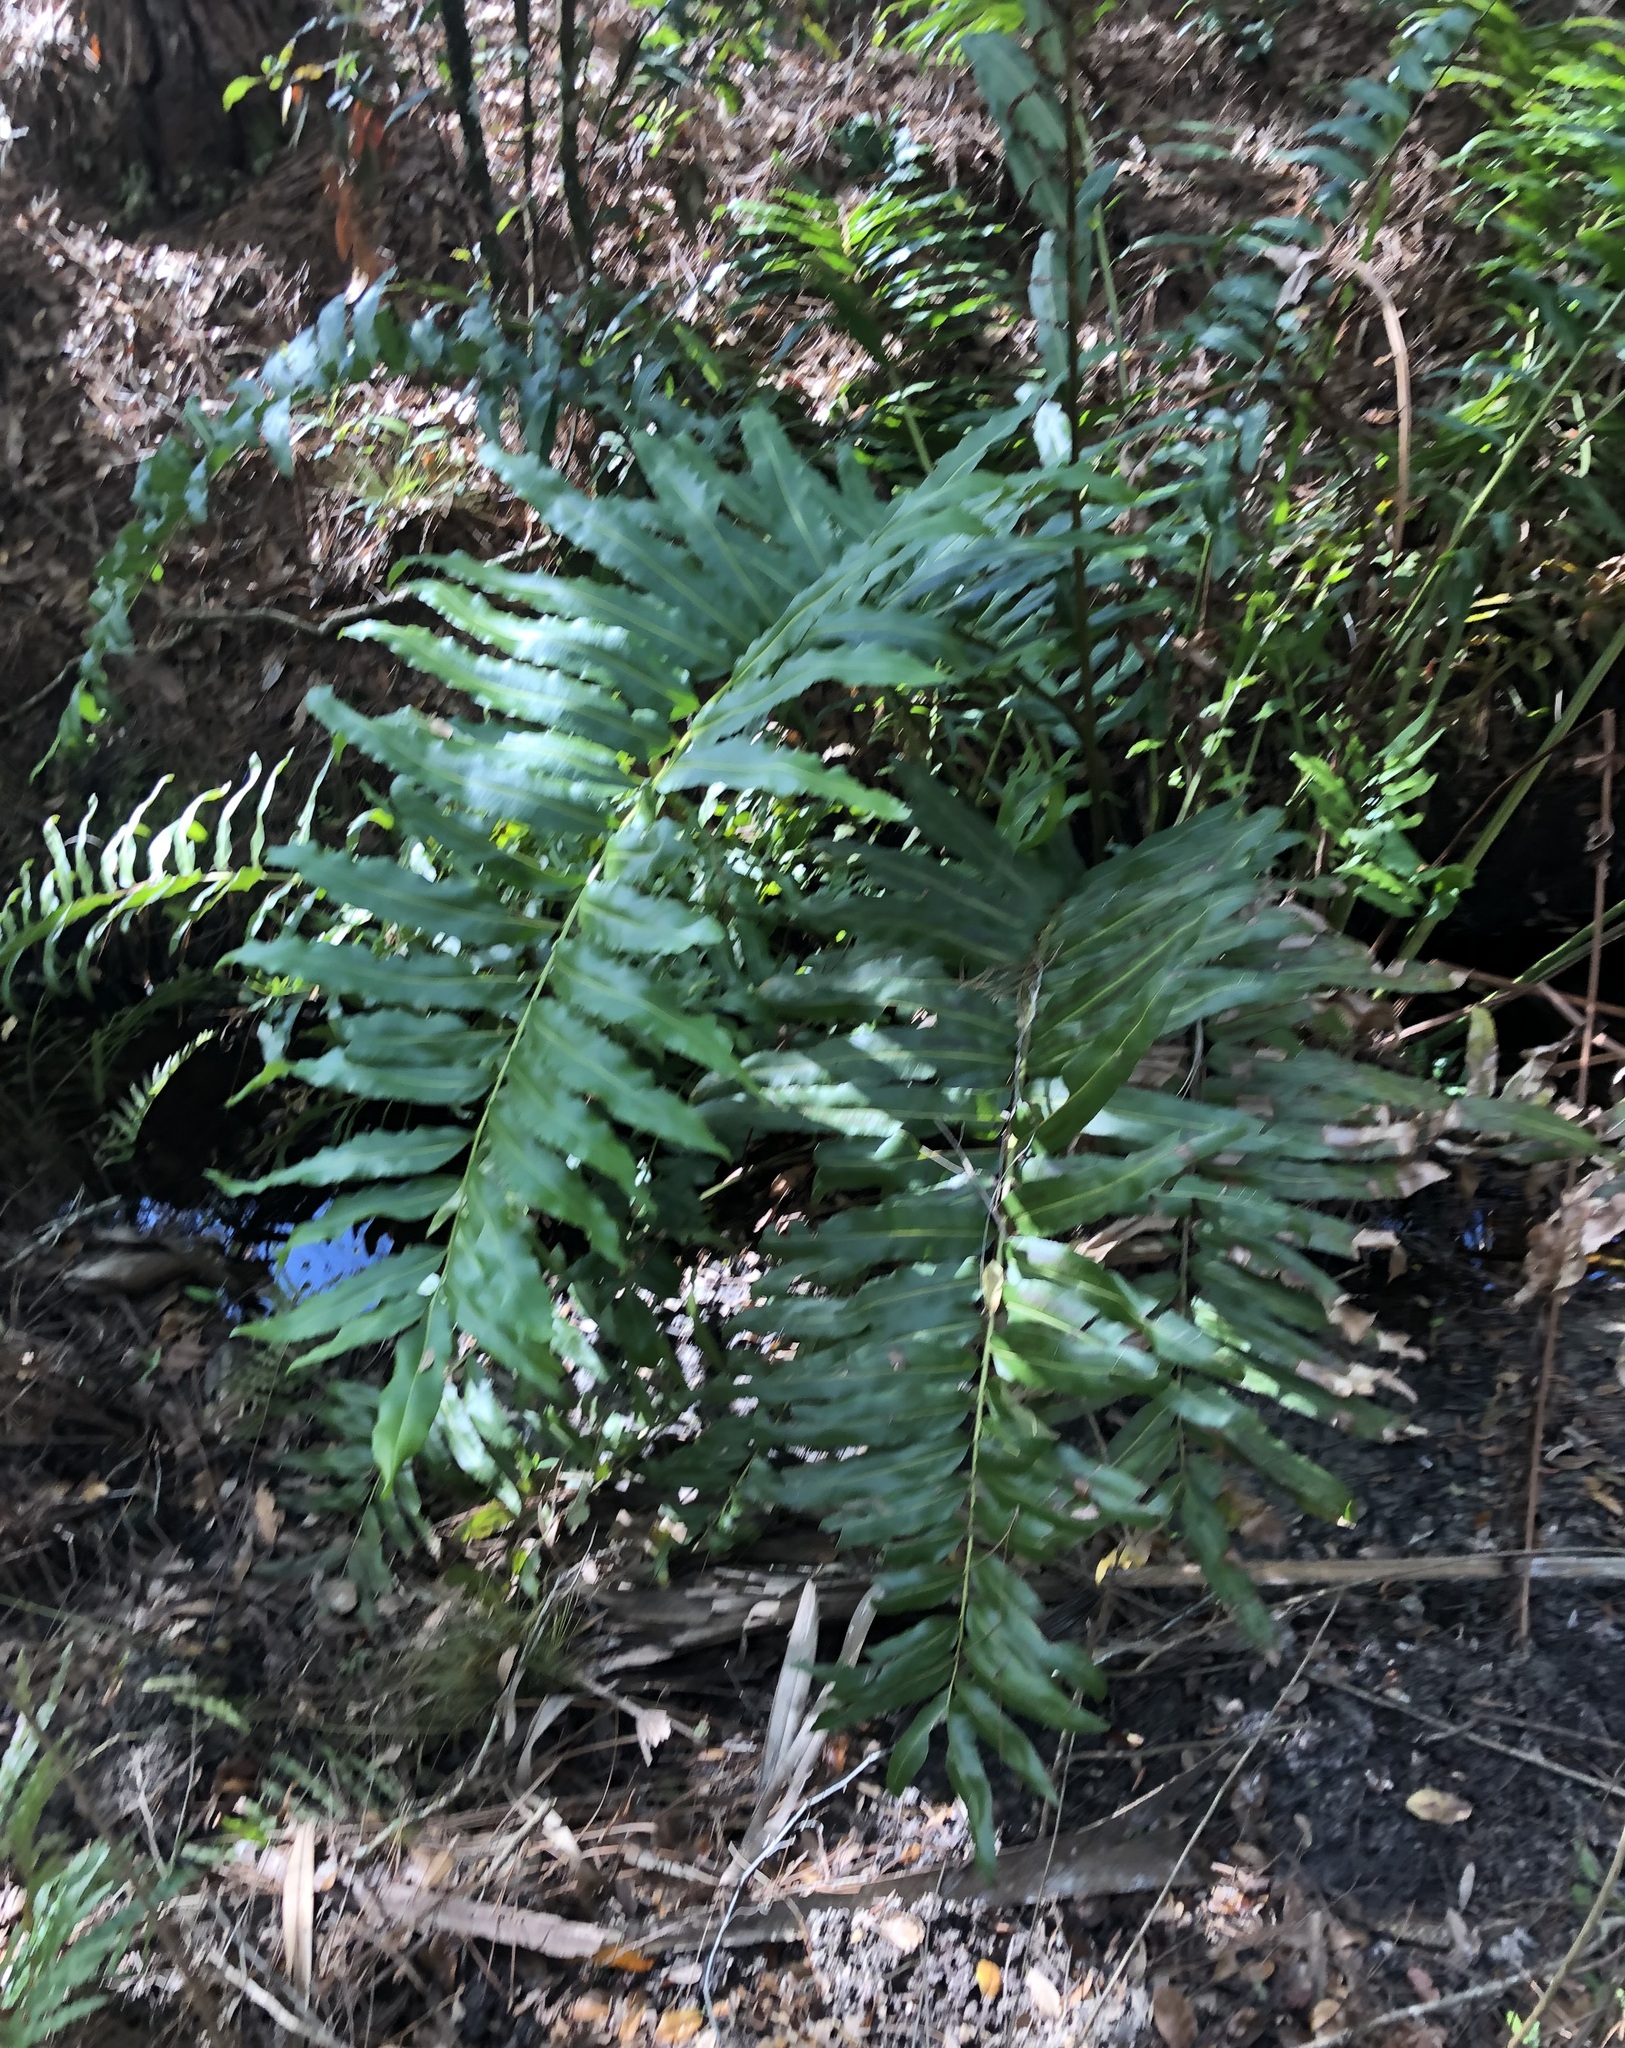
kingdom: Plantae
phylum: Tracheophyta
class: Polypodiopsida
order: Polypodiales
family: Pteridaceae
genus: Acrostichum
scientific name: Acrostichum danaeifolium
